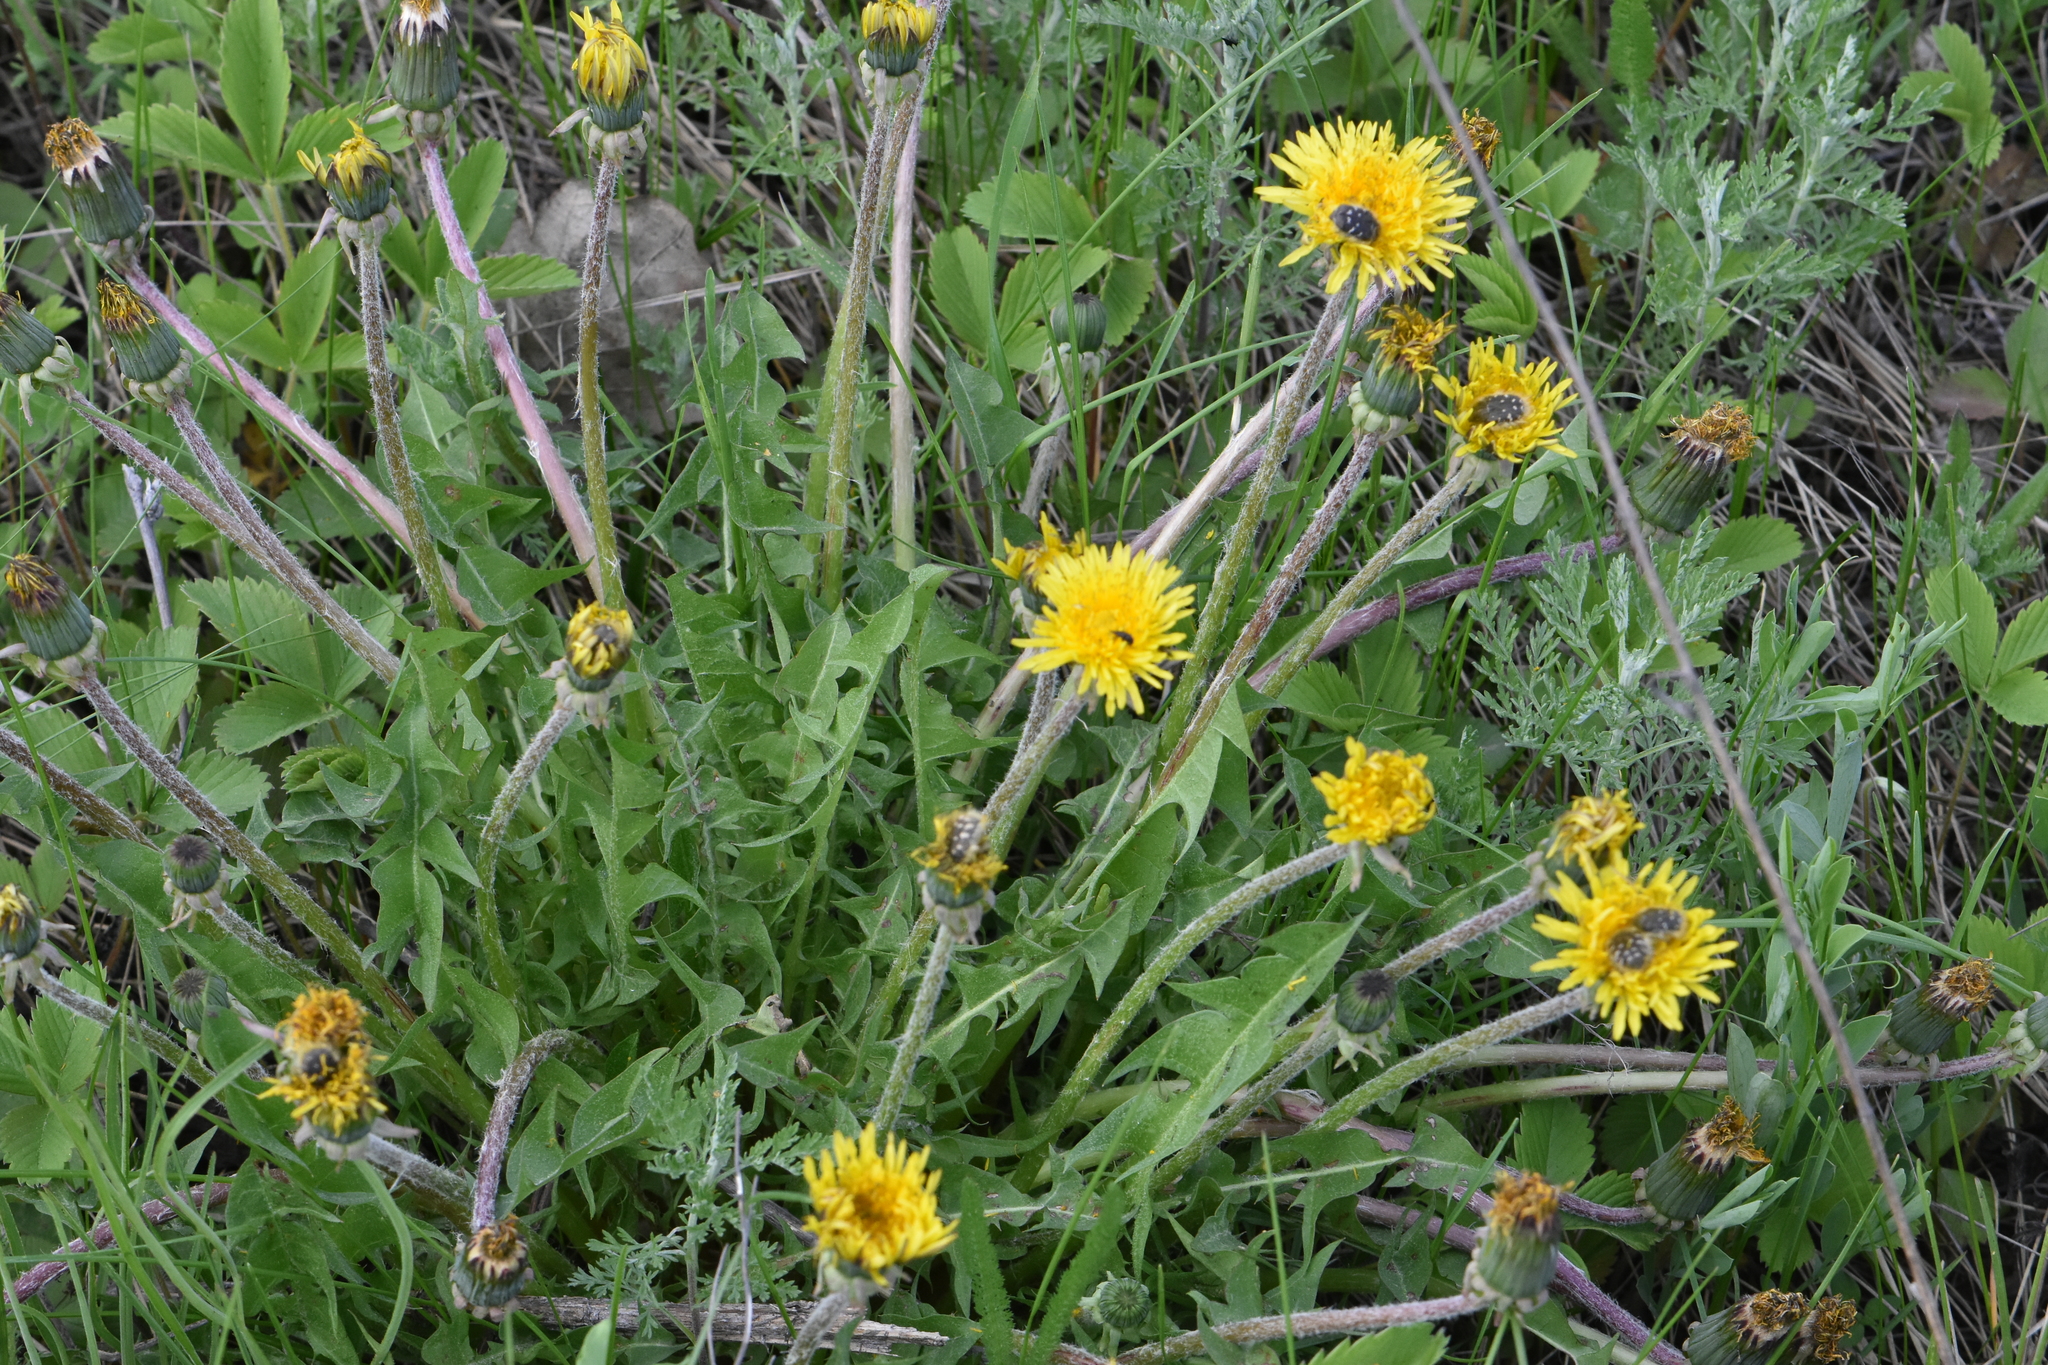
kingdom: Plantae
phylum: Tracheophyta
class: Magnoliopsida
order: Asterales
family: Asteraceae
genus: Taraxacum
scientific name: Taraxacum officinale
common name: Common dandelion
